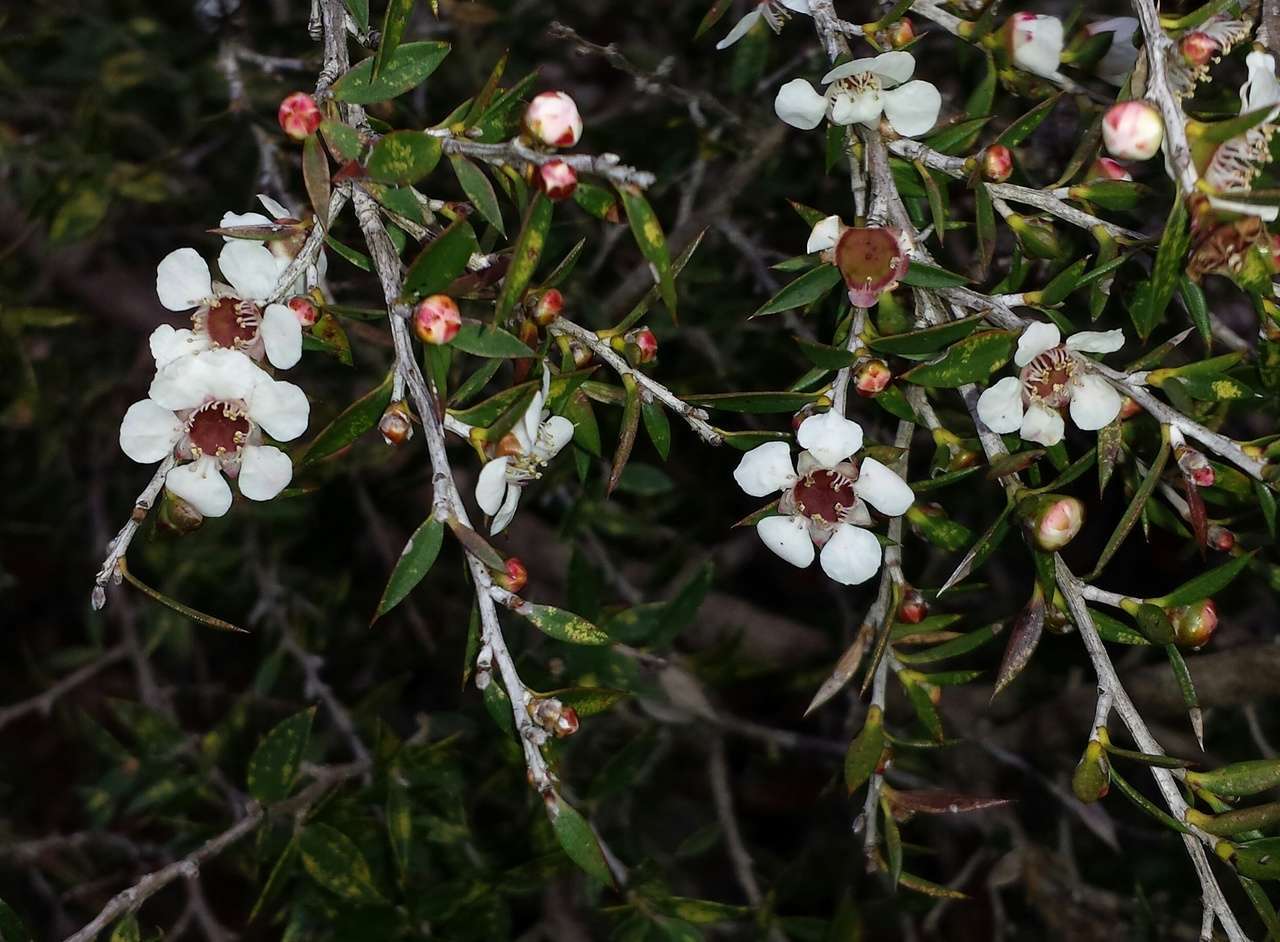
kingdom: Plantae
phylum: Tracheophyta
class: Magnoliopsida
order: Myrtales
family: Myrtaceae
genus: Leptospermum
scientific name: Leptospermum scoparium
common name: Broom tea-tree
